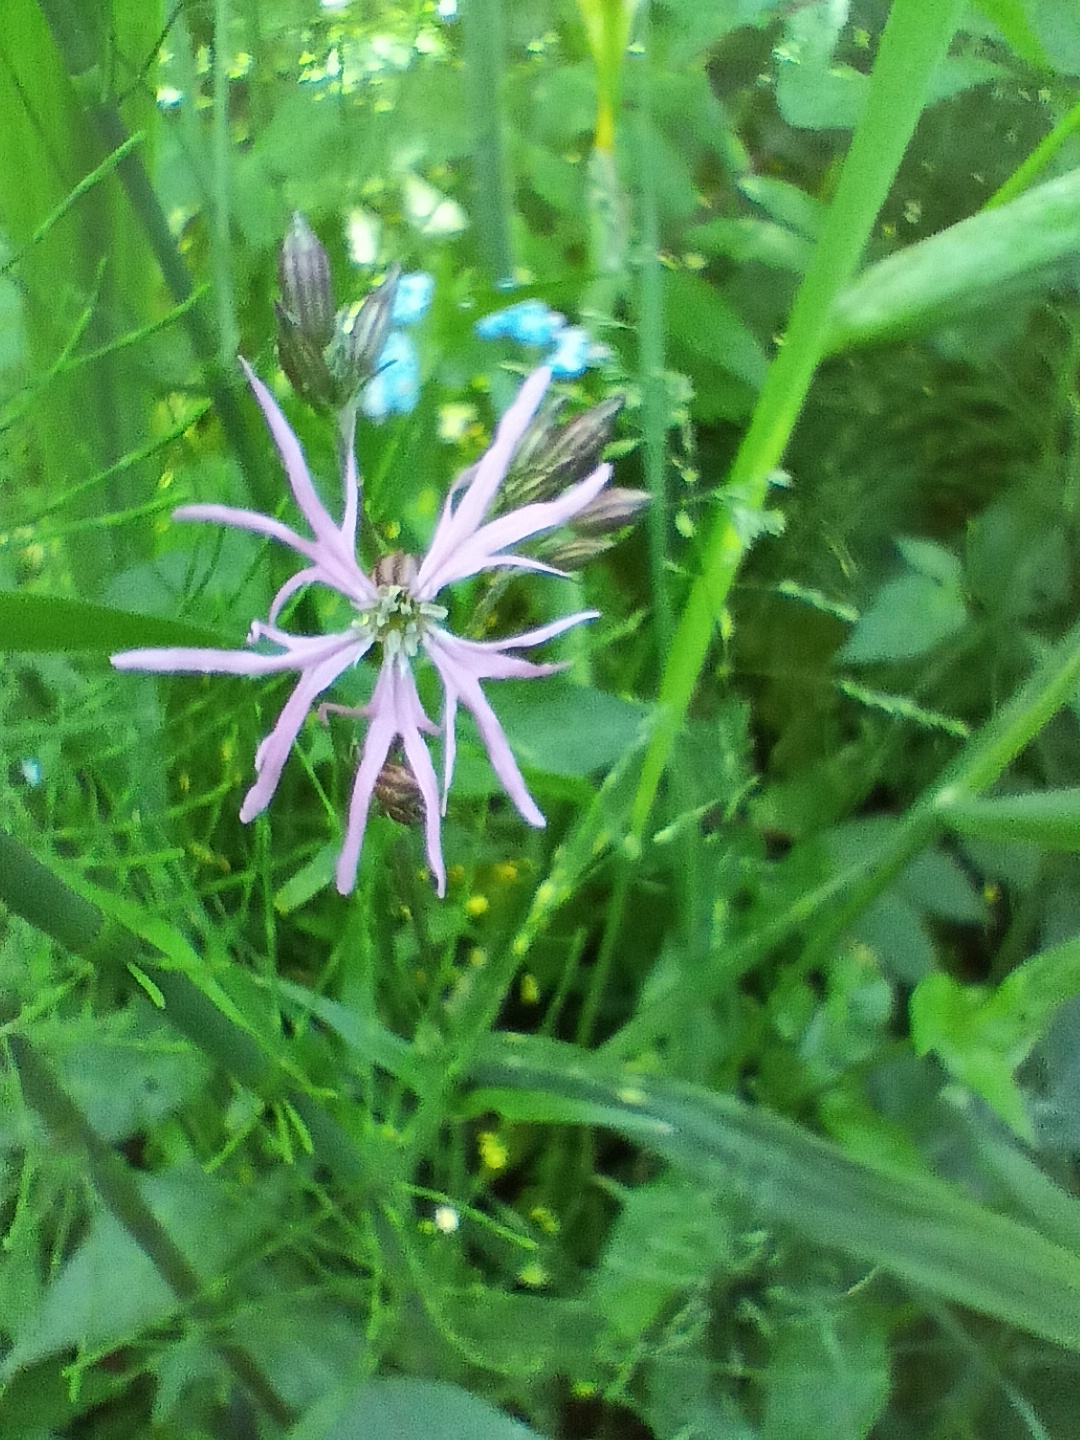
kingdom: Plantae
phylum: Tracheophyta
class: Magnoliopsida
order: Caryophyllales
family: Caryophyllaceae
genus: Silene
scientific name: Silene flos-cuculi
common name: Ragged-robin
